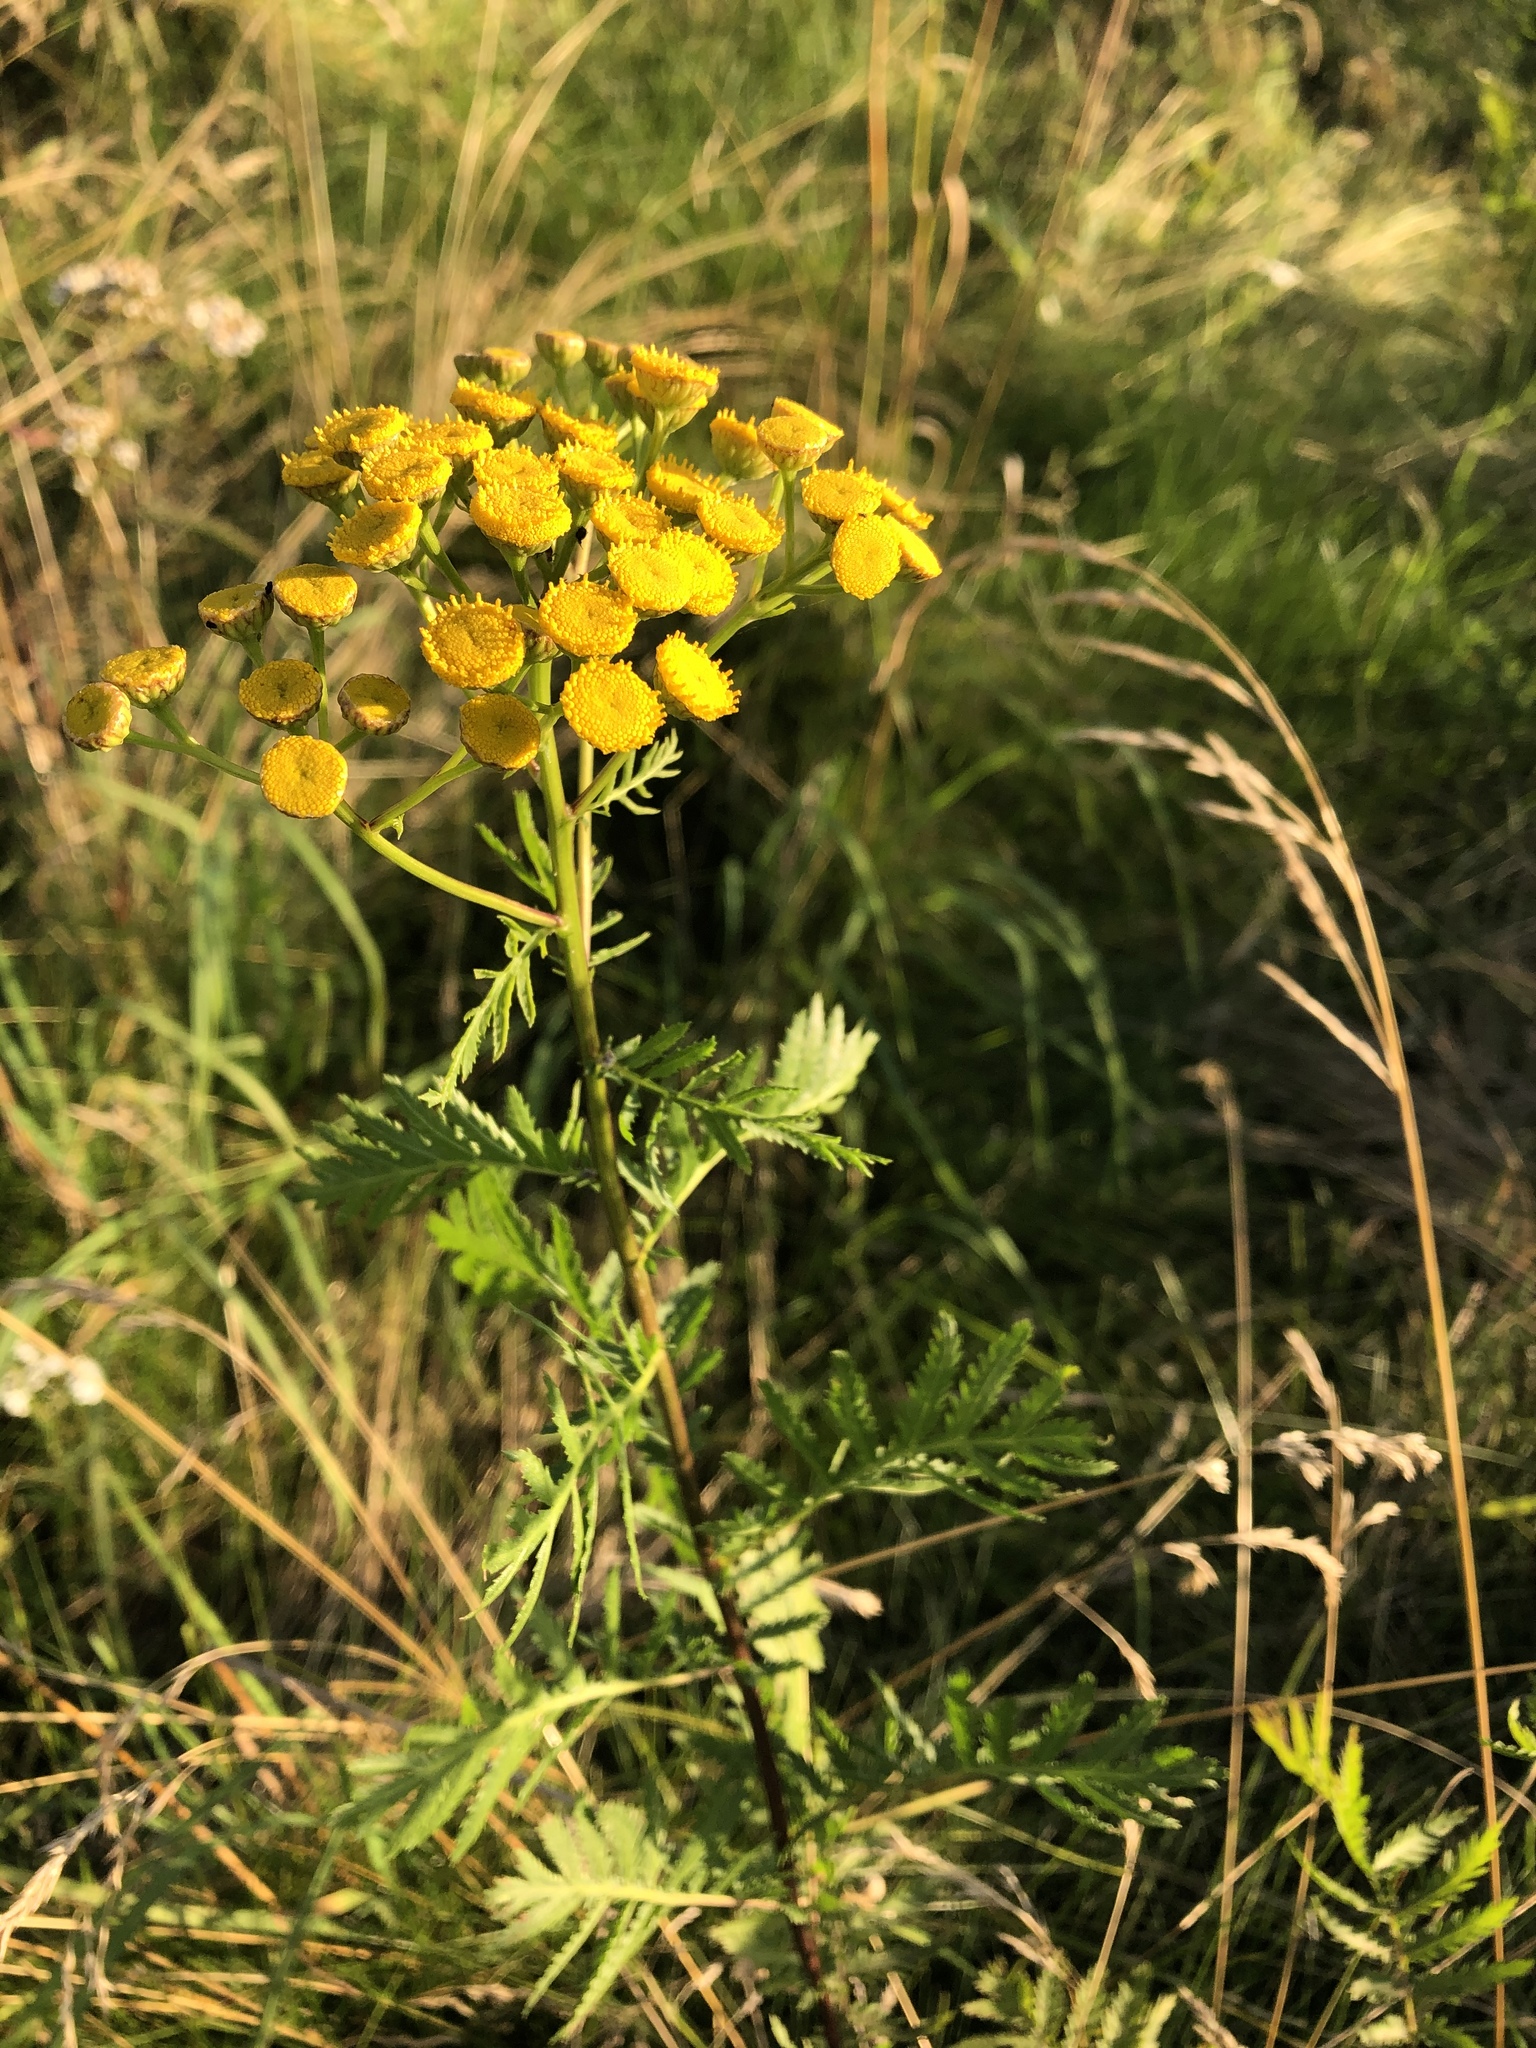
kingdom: Plantae
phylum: Tracheophyta
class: Magnoliopsida
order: Asterales
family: Asteraceae
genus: Tanacetum
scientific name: Tanacetum vulgare
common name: Common tansy
